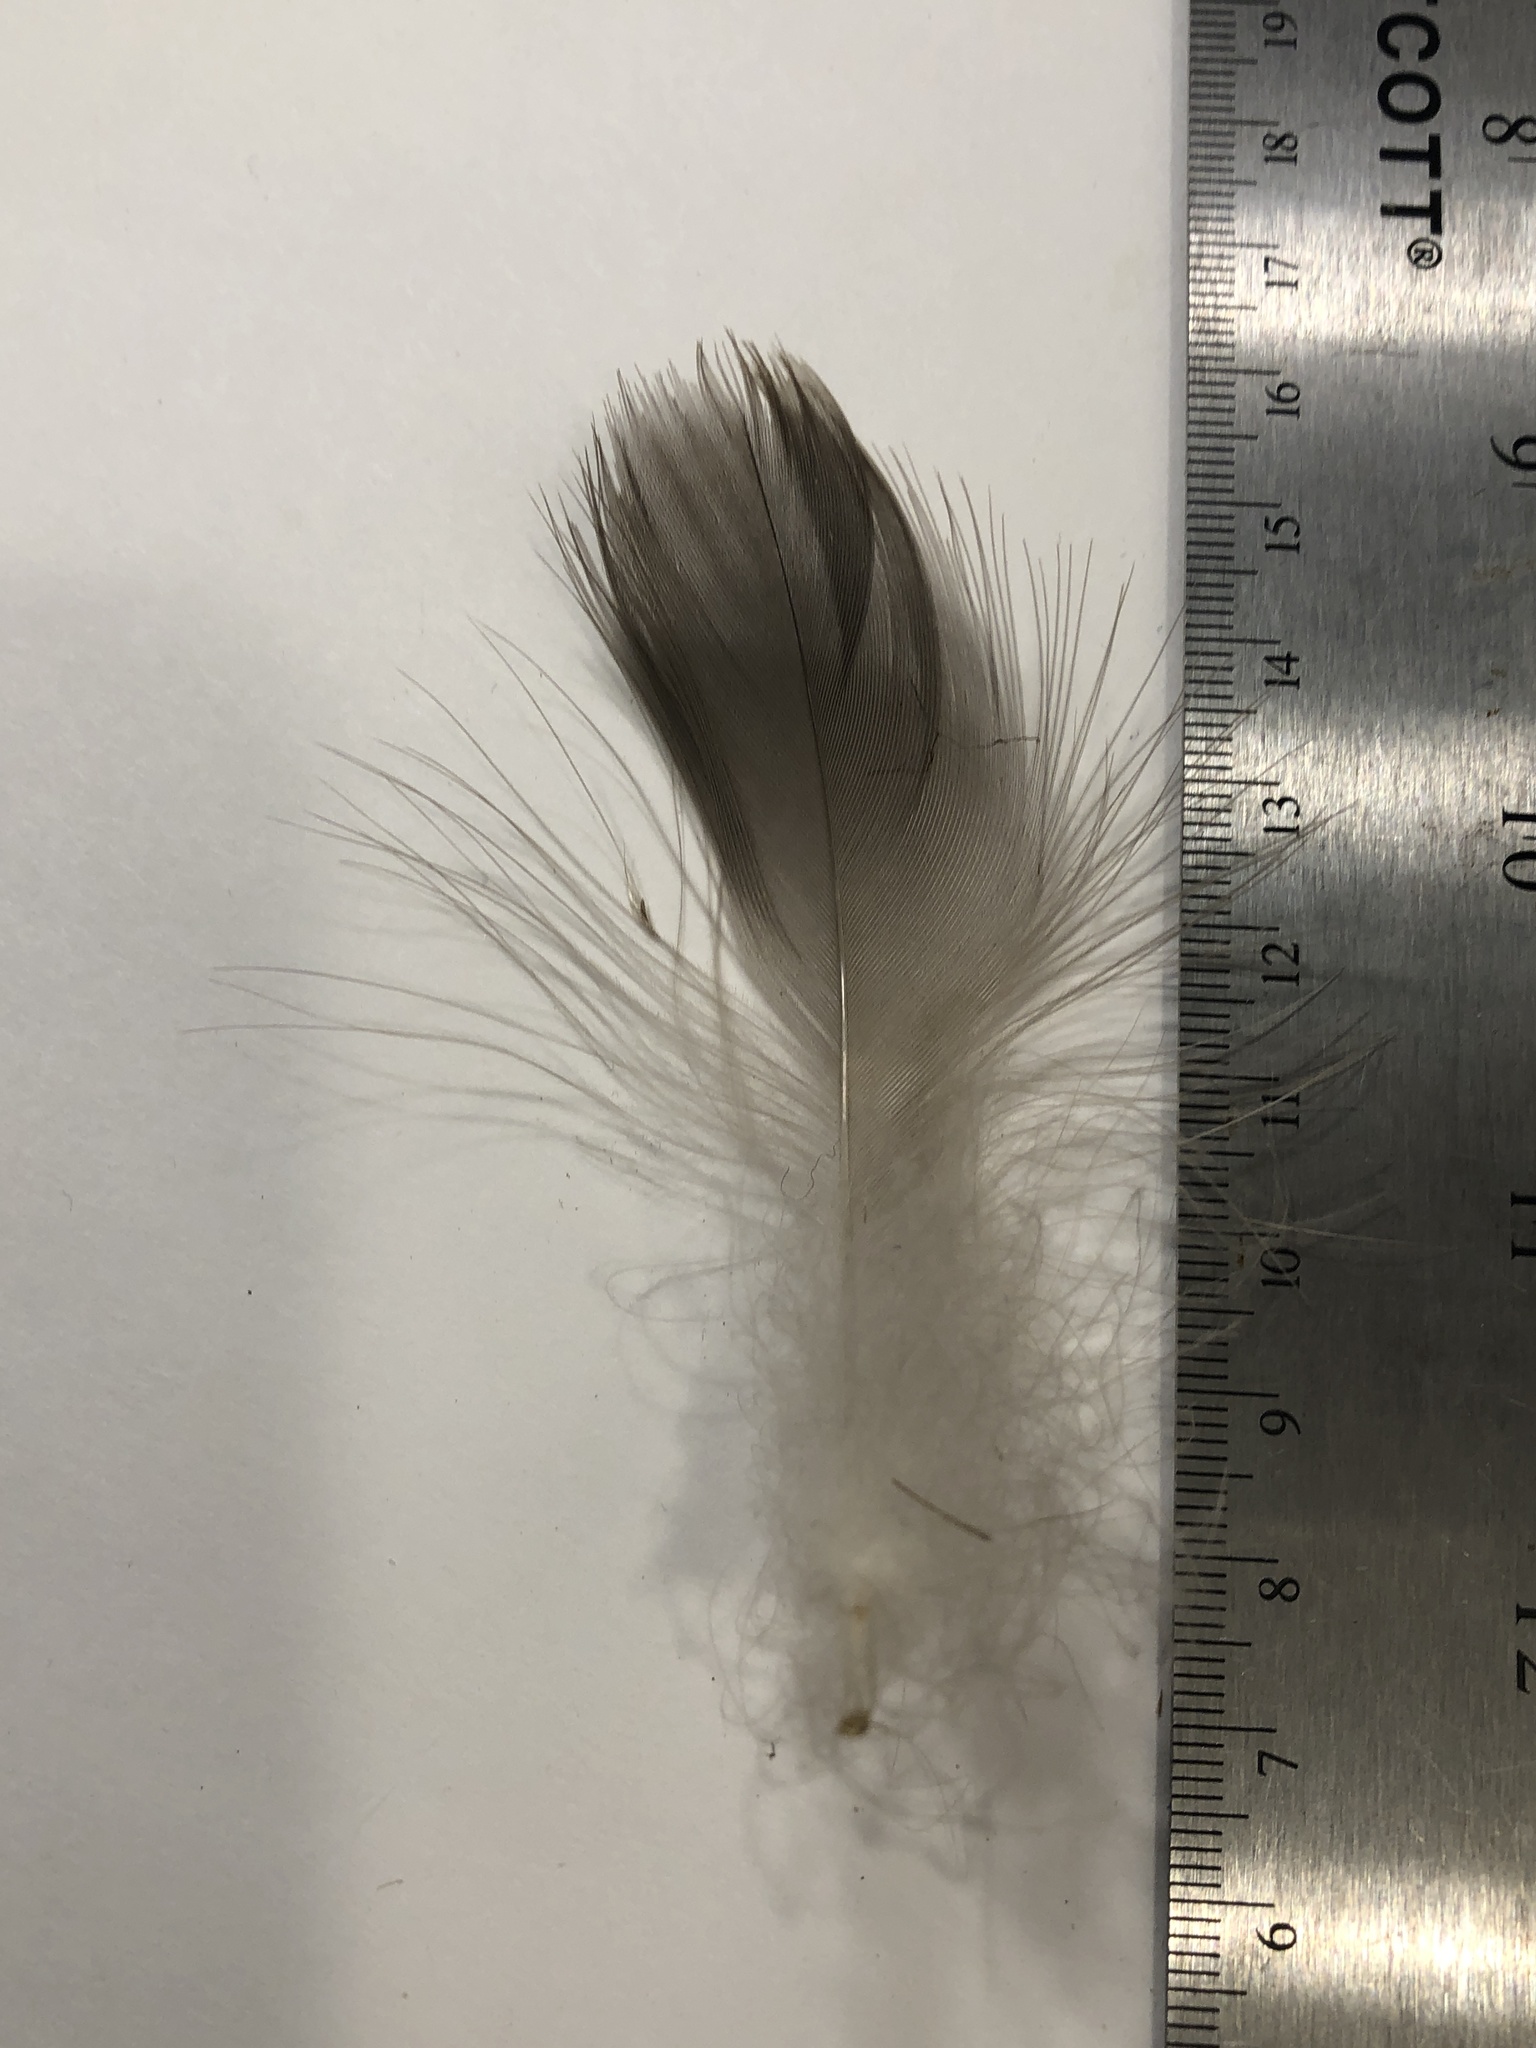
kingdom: Animalia
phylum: Chordata
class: Aves
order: Anseriformes
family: Anatidae
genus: Branta
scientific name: Branta canadensis
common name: Canada goose
